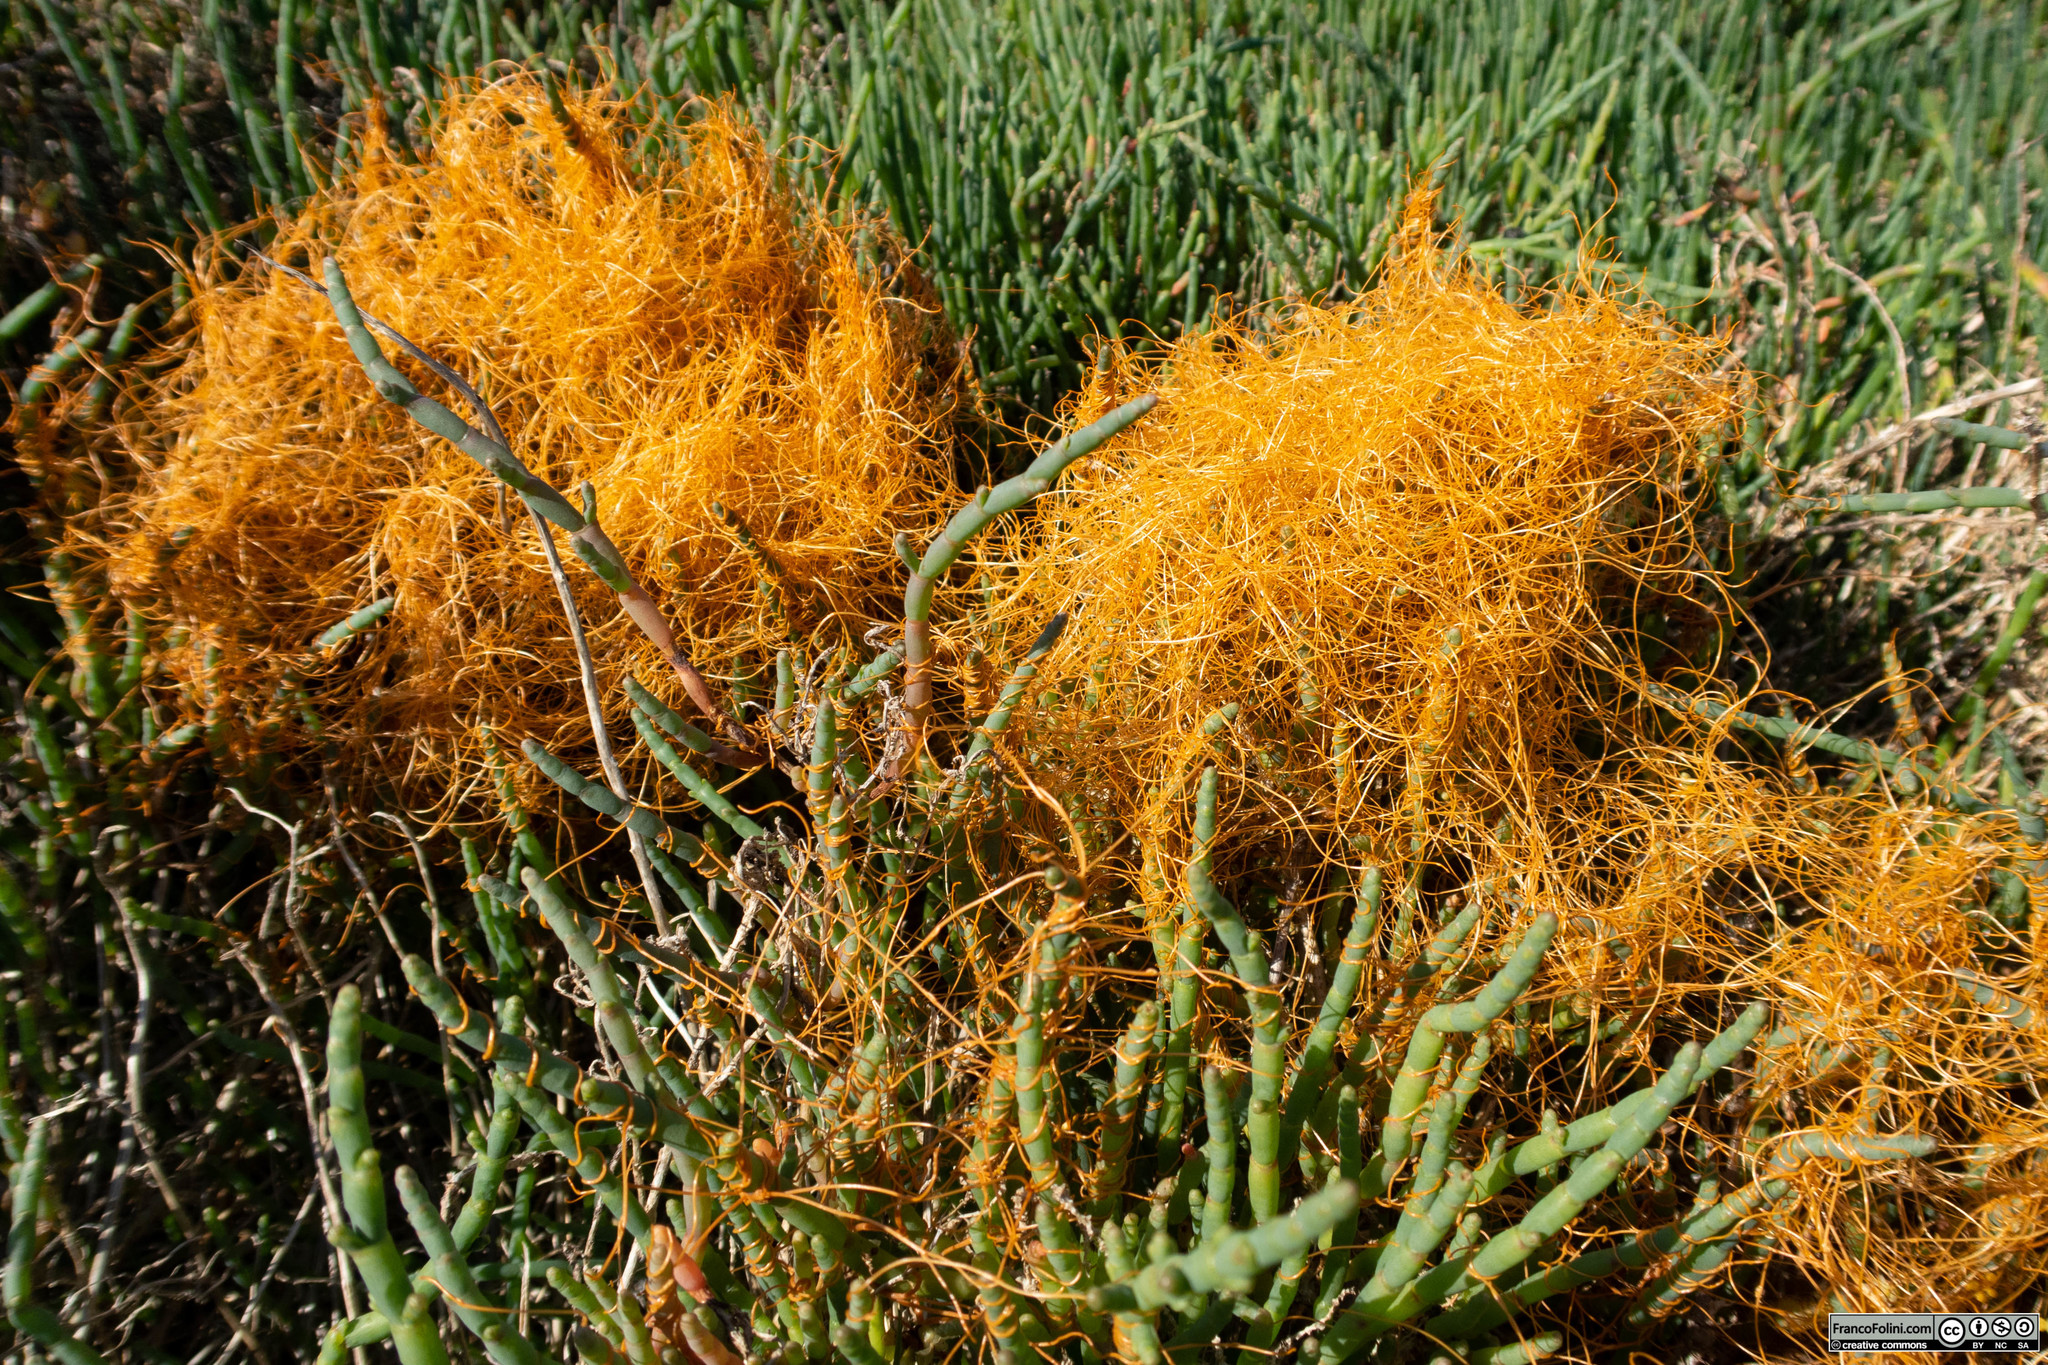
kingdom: Plantae
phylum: Tracheophyta
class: Magnoliopsida
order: Solanales
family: Convolvulaceae
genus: Cuscuta
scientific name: Cuscuta pacifica
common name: Large saltmarsh dodder
